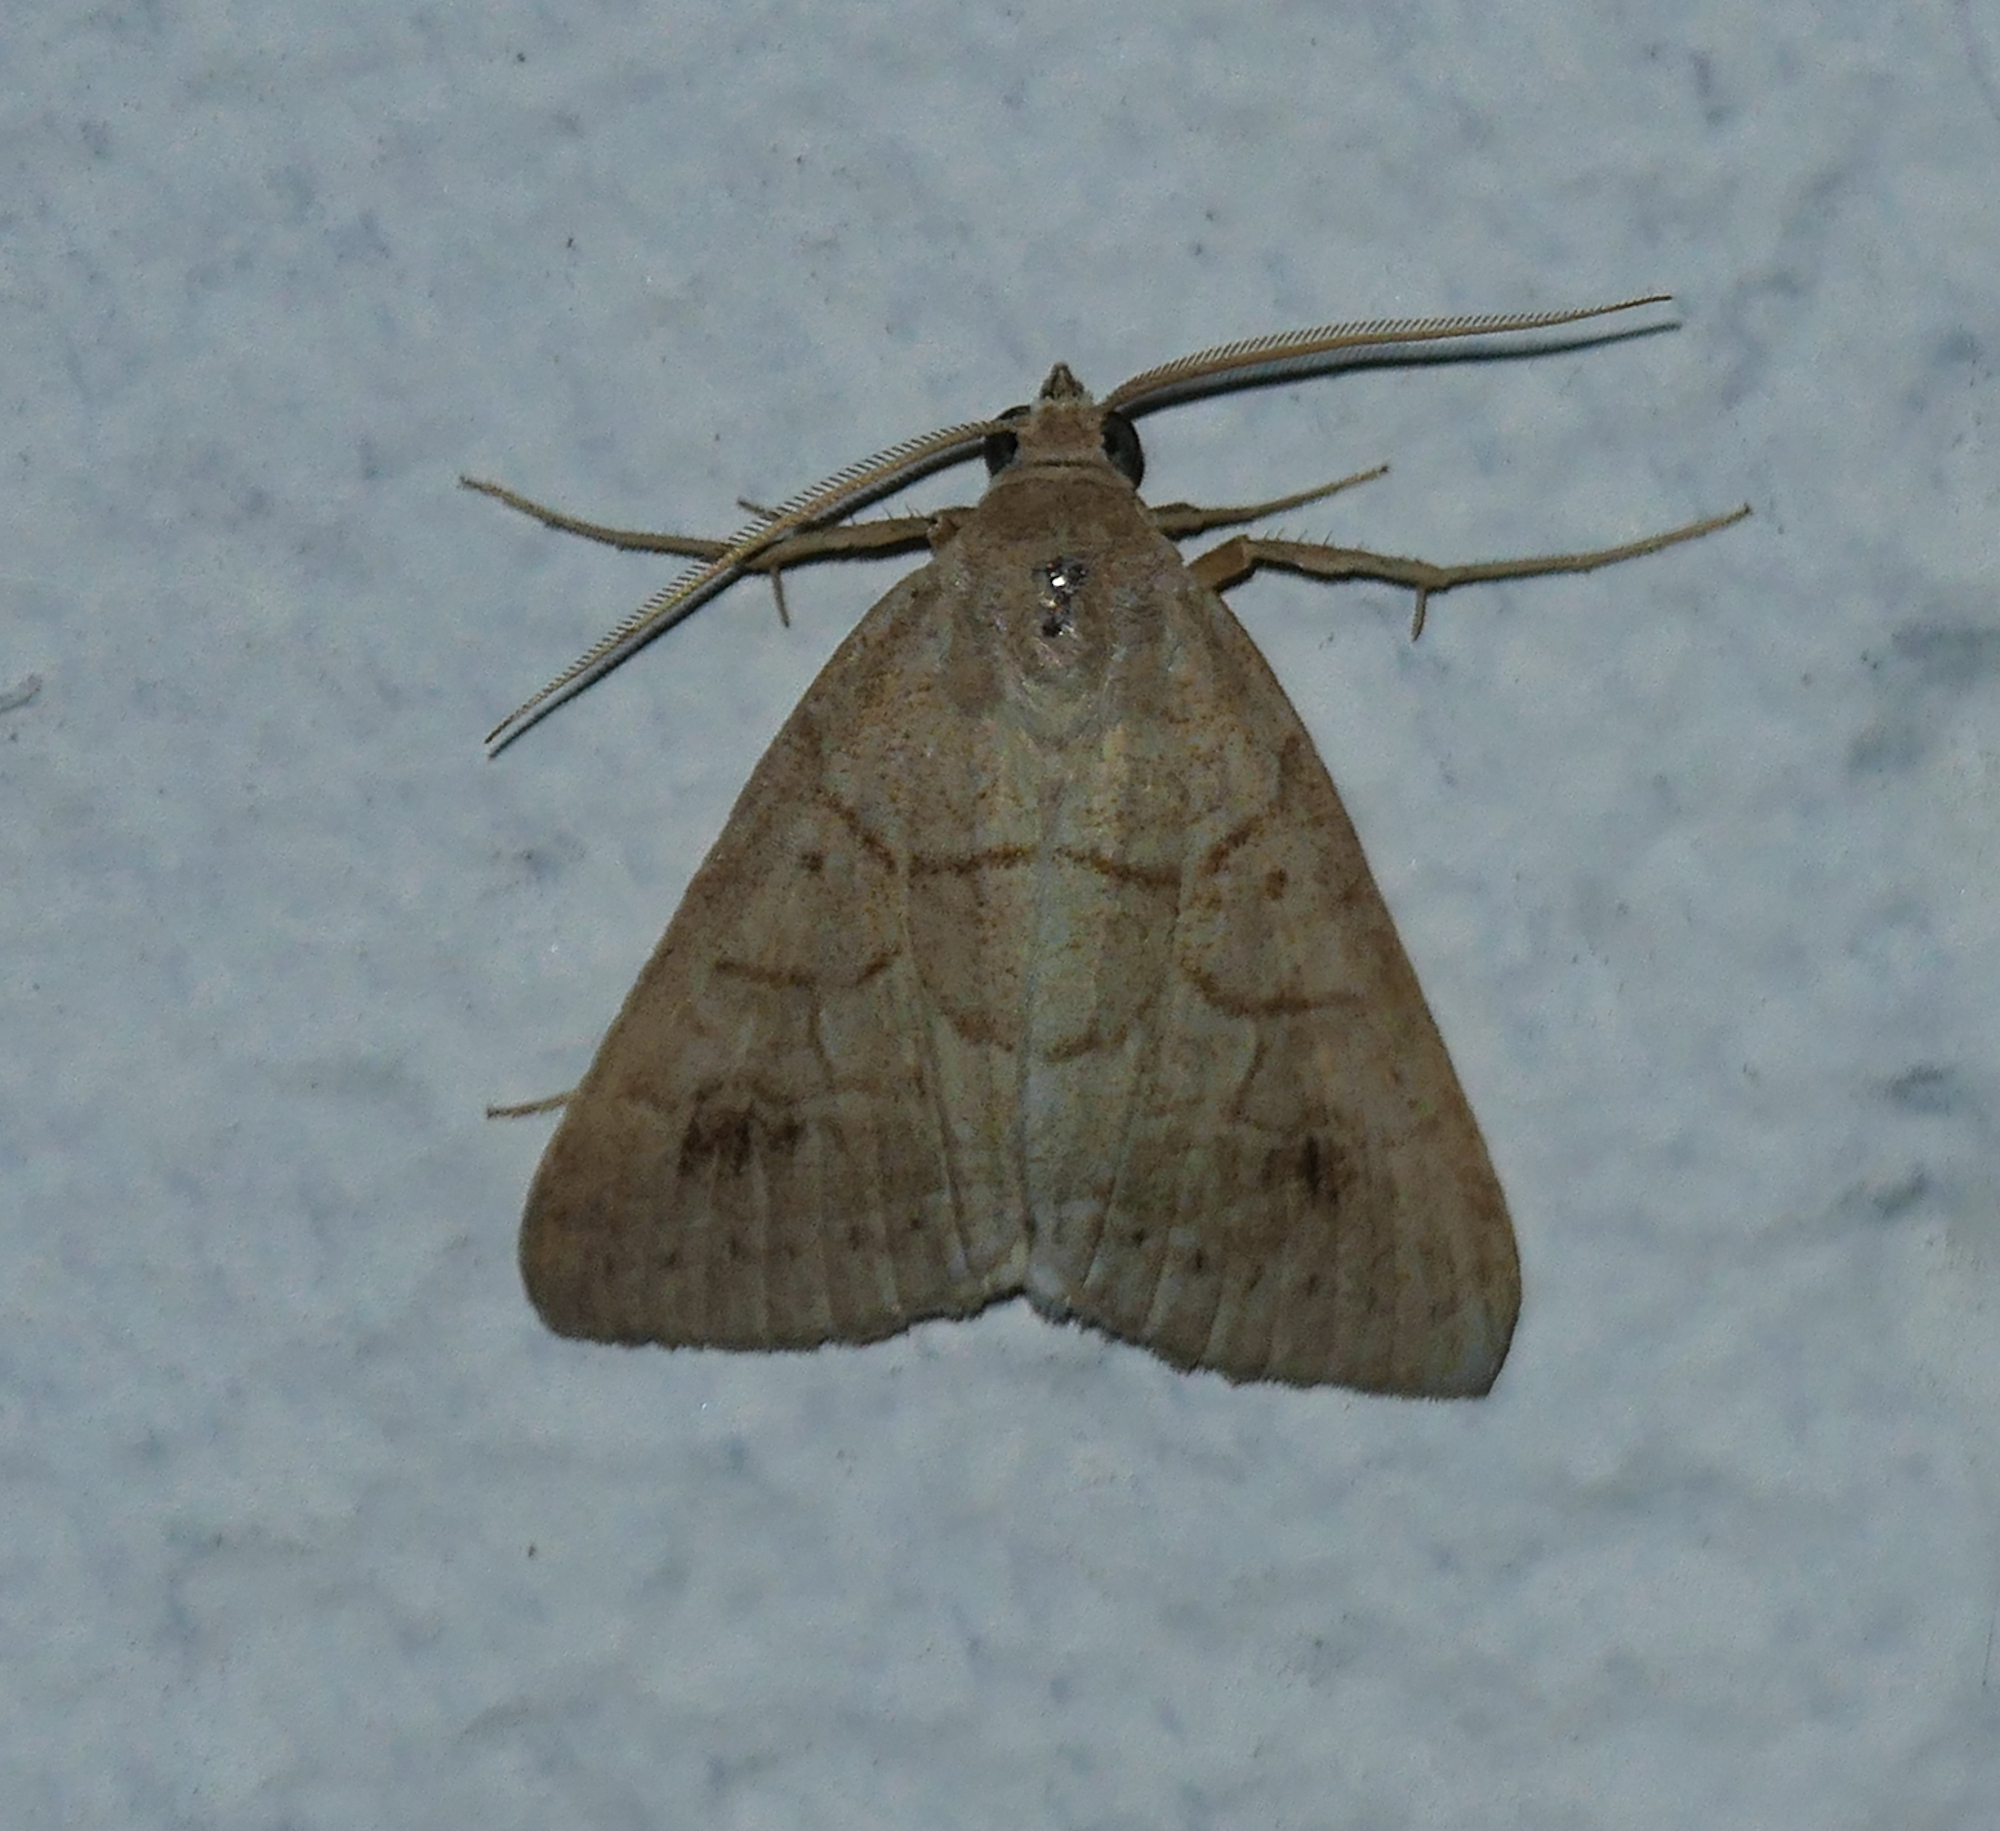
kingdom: Animalia
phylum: Arthropoda
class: Insecta
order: Lepidoptera
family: Erebidae
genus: Caenurgia
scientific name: Caenurgia chloropha
